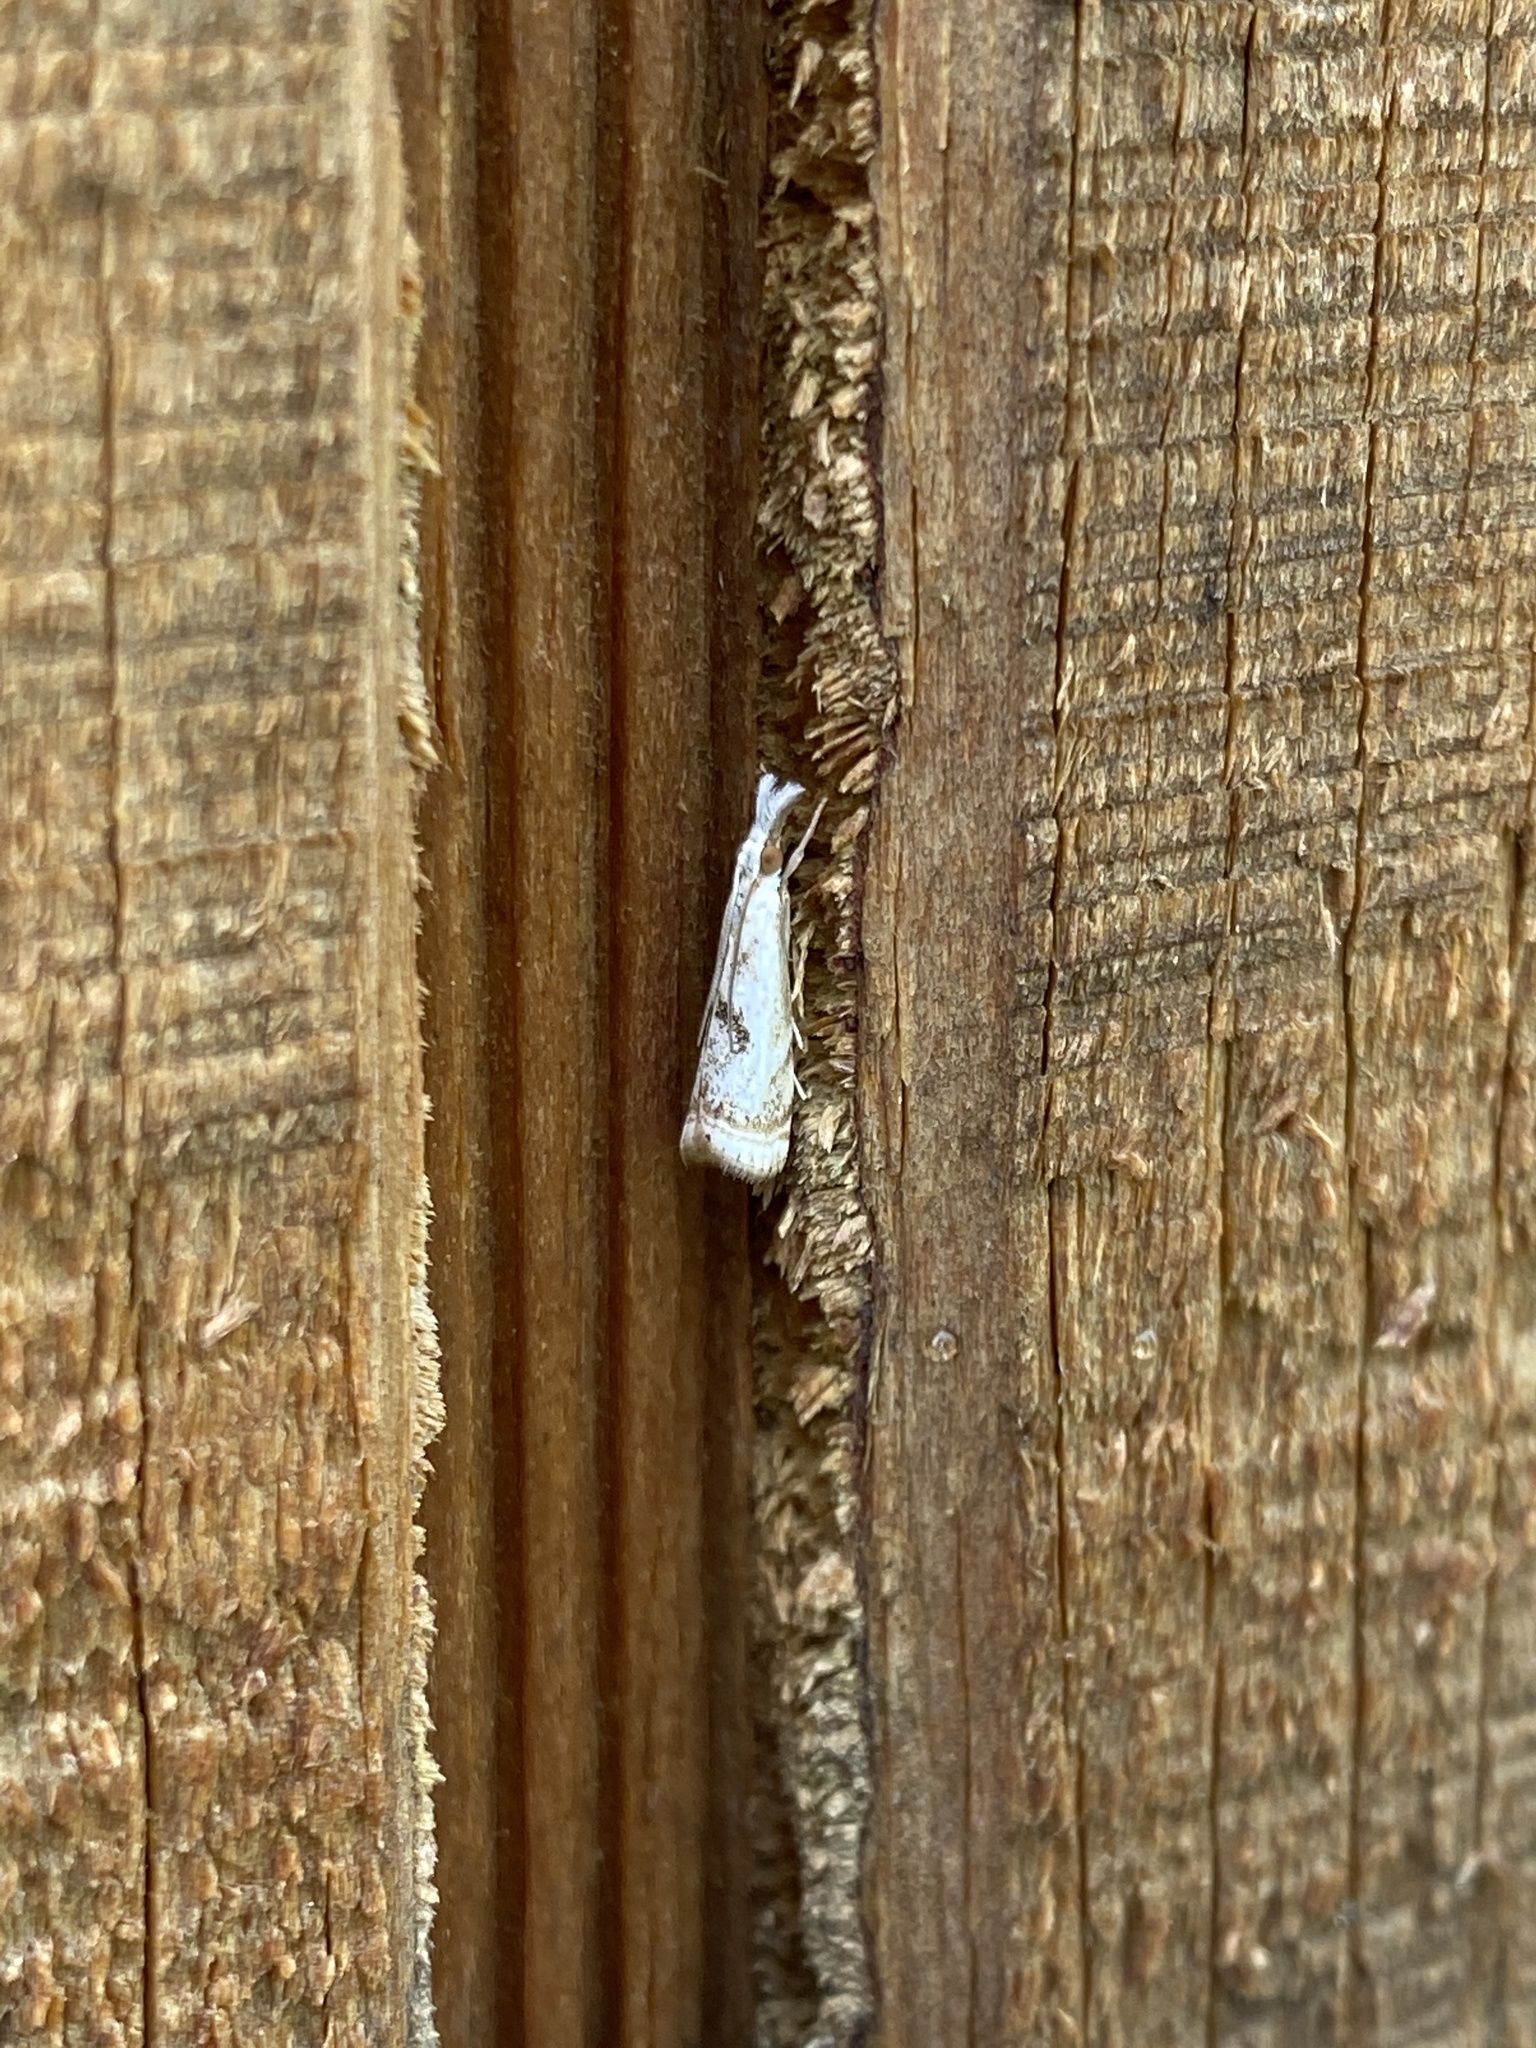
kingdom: Animalia
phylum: Arthropoda
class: Insecta
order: Lepidoptera
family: Crambidae
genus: Microcrambus
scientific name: Microcrambus elegans
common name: Elegant grass-veneer
